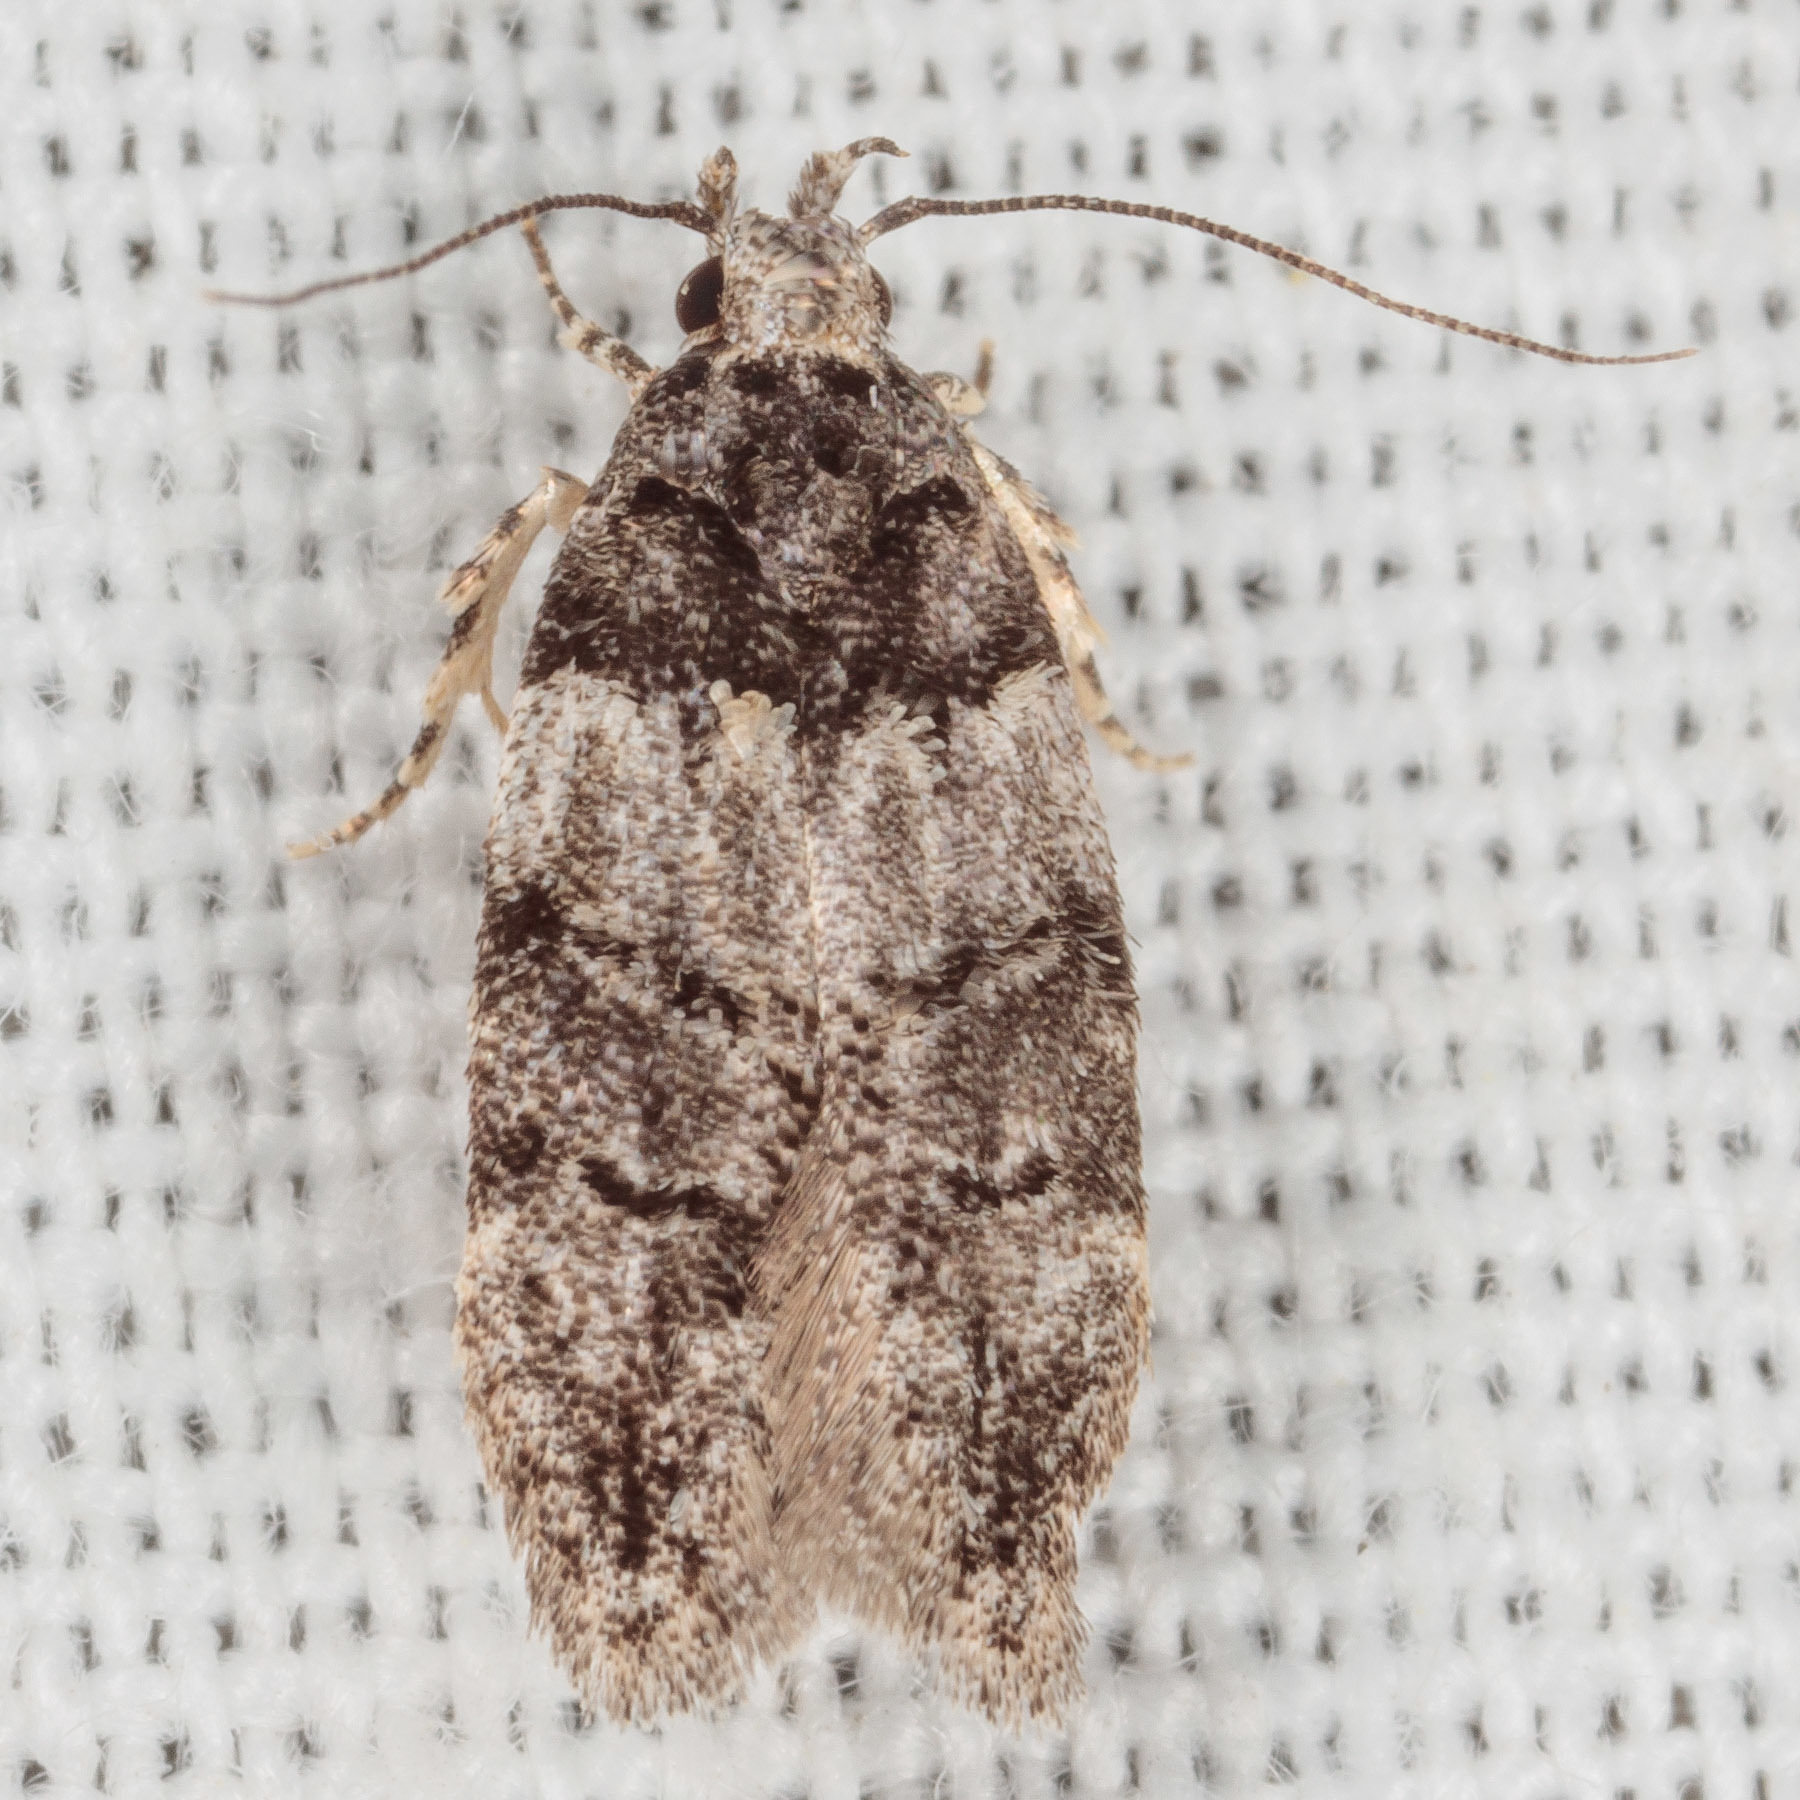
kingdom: Animalia
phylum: Arthropoda
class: Insecta
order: Lepidoptera
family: Gelechiidae
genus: Pubitelphusa
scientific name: Pubitelphusa latifasciella
